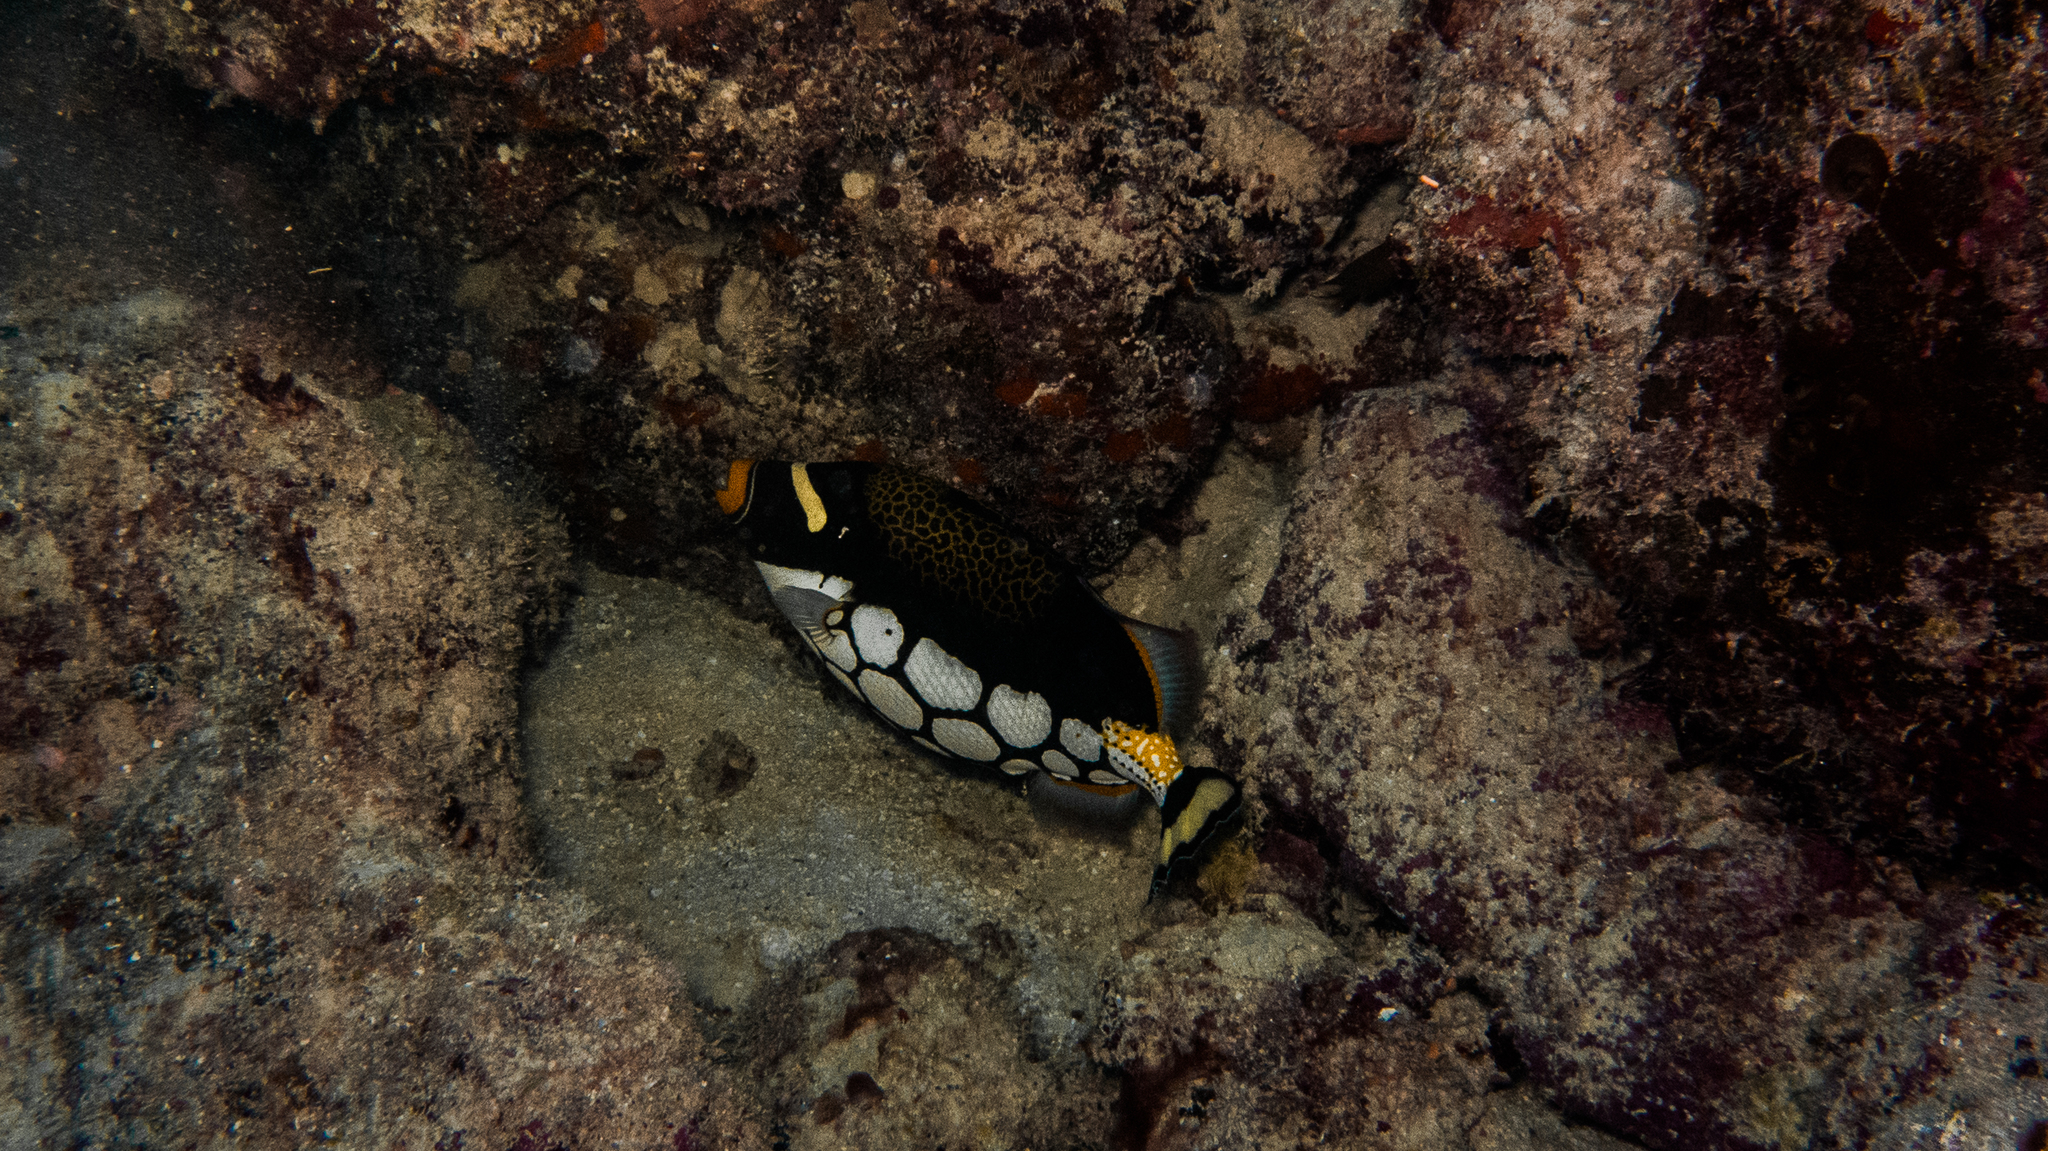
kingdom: Animalia
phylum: Chordata
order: Tetraodontiformes
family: Balistidae
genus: Balistoides
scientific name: Balistoides conspicillum
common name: Clown triggerfish
